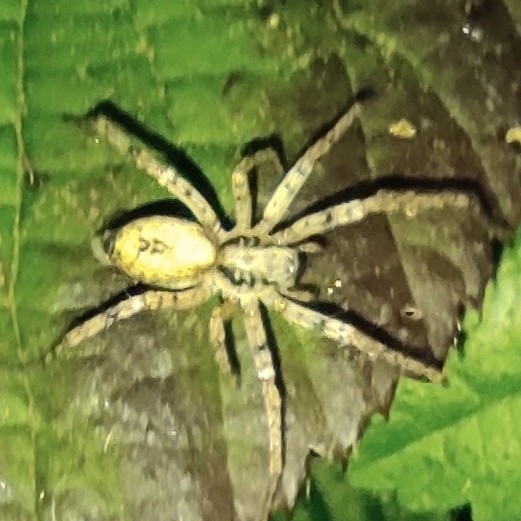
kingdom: Animalia
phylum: Arthropoda
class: Arachnida
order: Araneae
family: Anyphaenidae
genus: Anyphaena
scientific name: Anyphaena accentuata
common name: Buzzing spider
